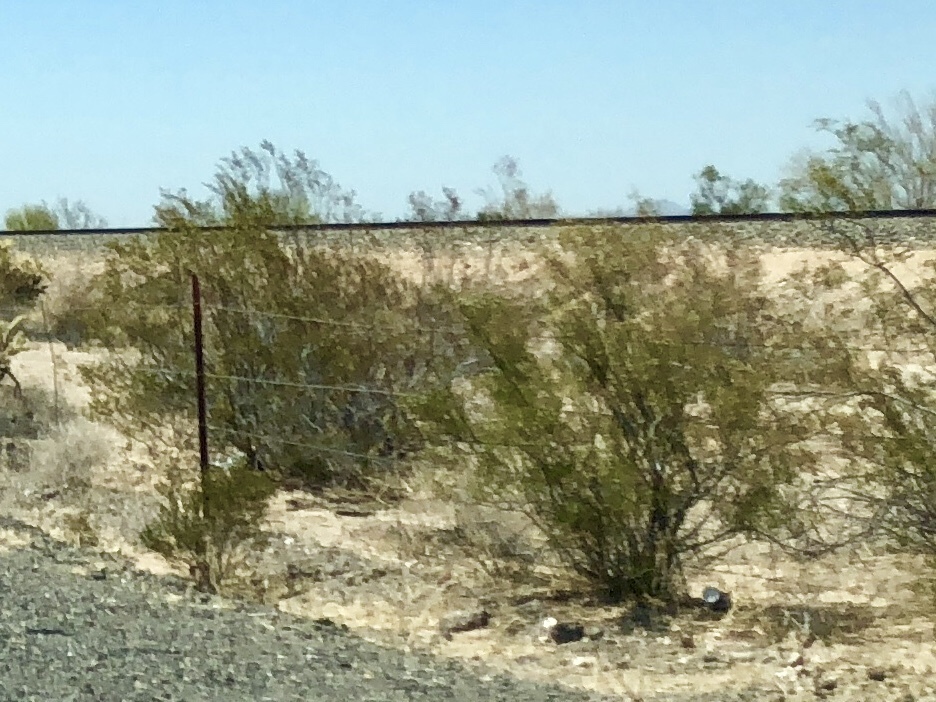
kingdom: Plantae
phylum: Tracheophyta
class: Magnoliopsida
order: Zygophyllales
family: Zygophyllaceae
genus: Larrea
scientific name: Larrea tridentata
